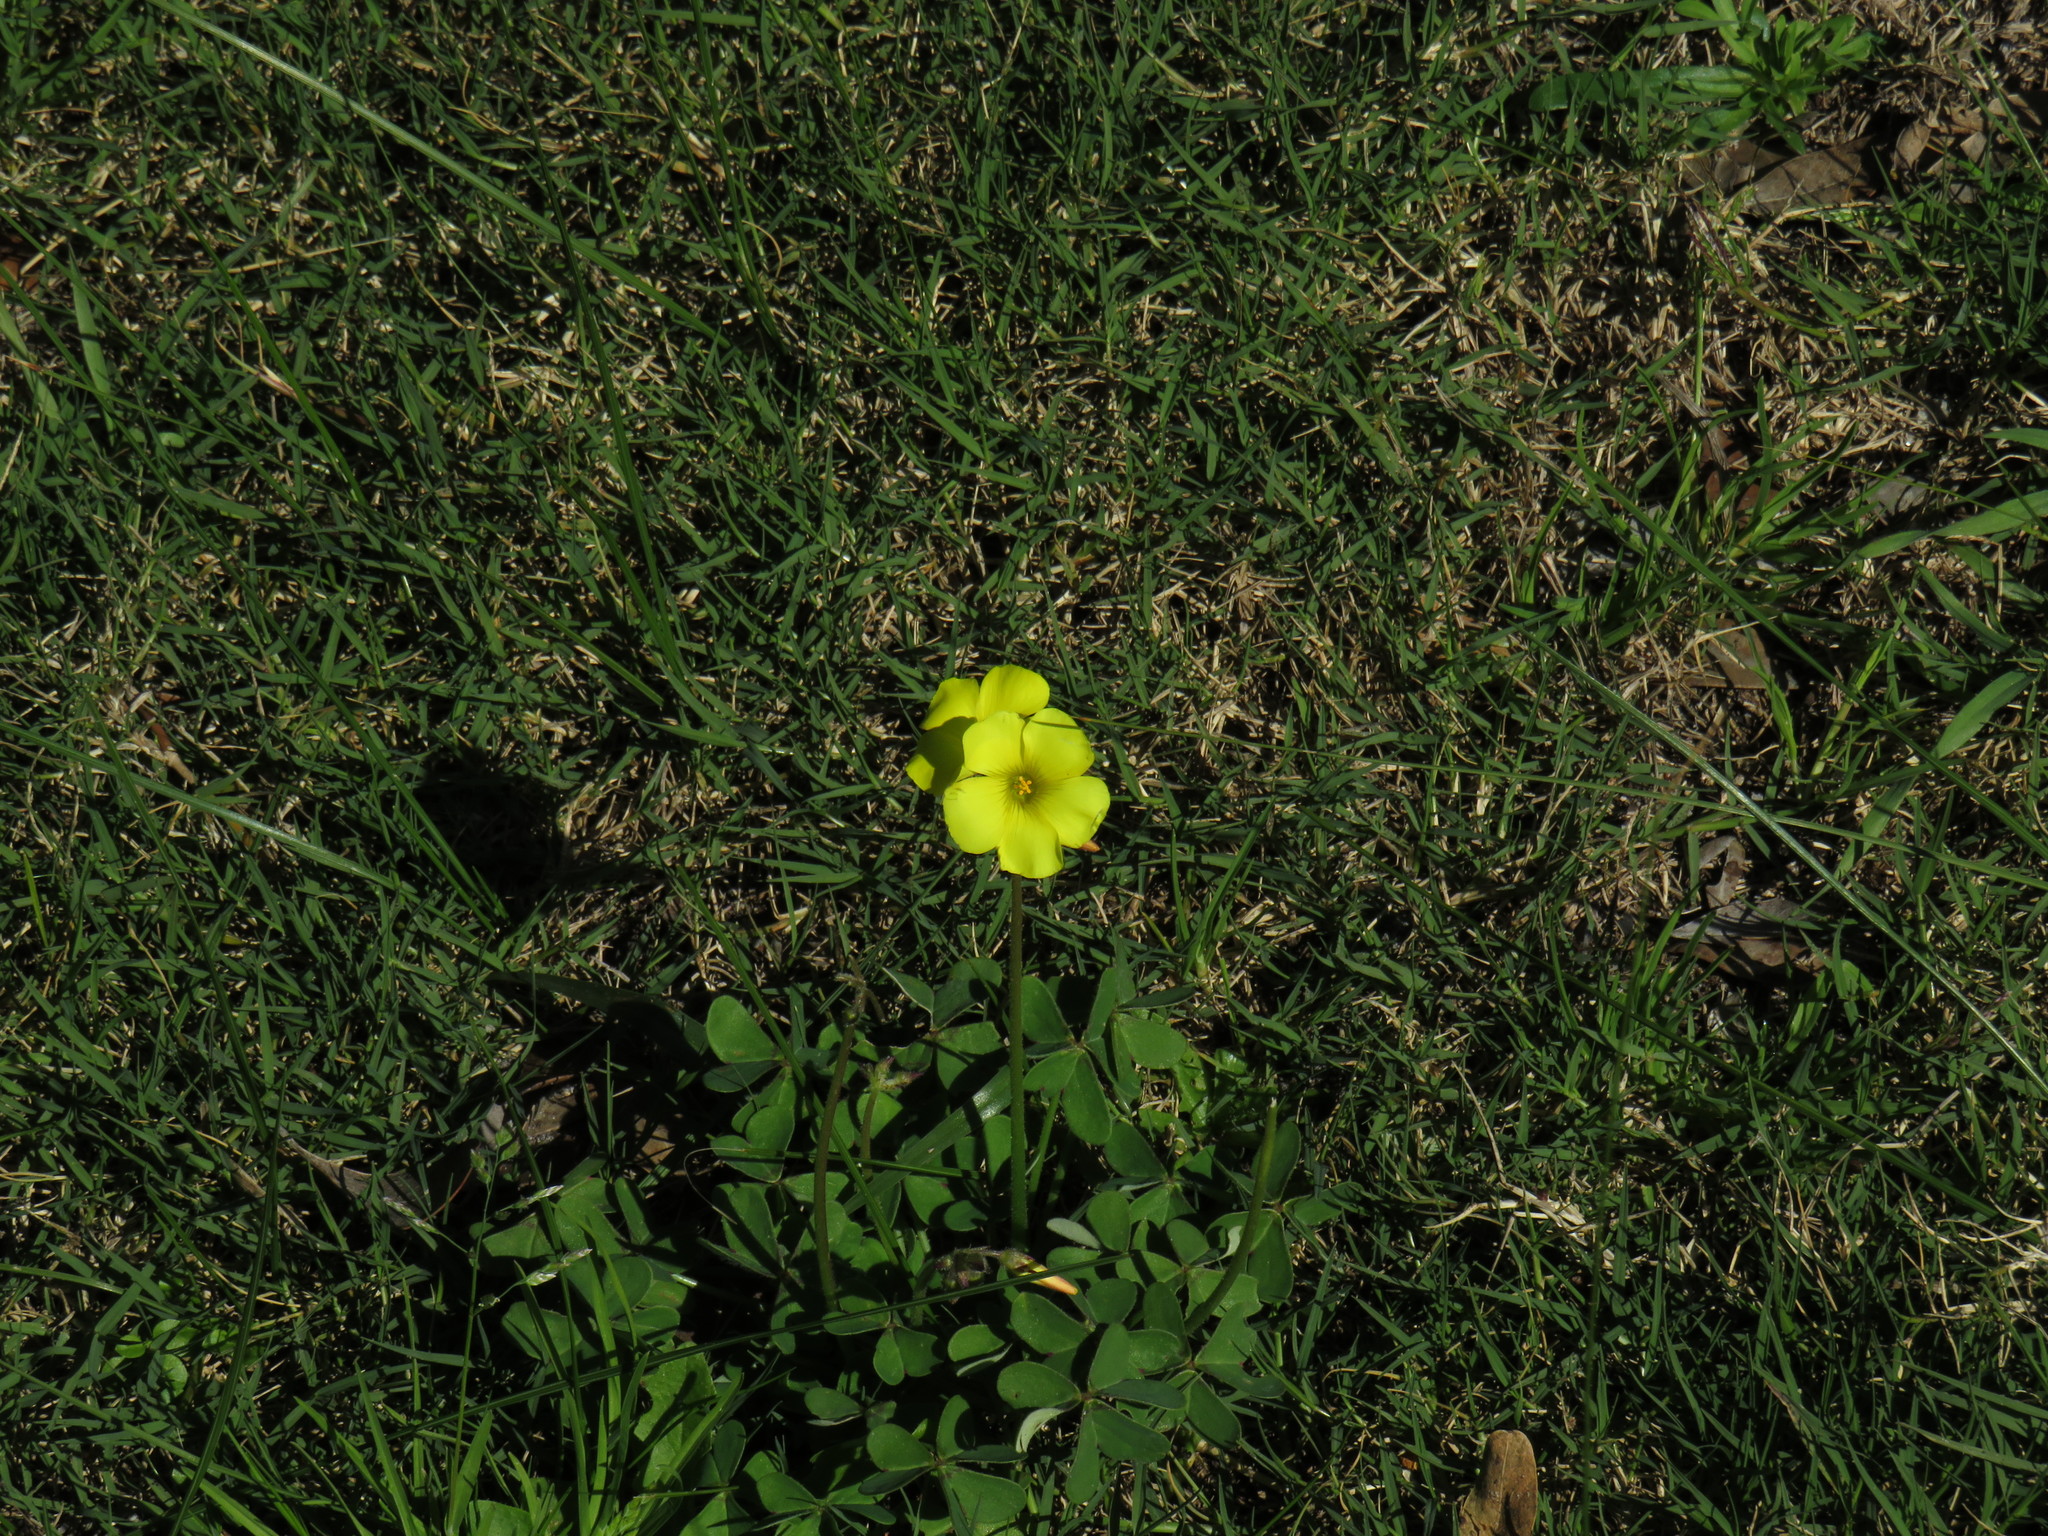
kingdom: Plantae
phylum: Tracheophyta
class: Magnoliopsida
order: Oxalidales
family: Oxalidaceae
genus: Oxalis
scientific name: Oxalis pes-caprae
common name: Bermuda-buttercup
